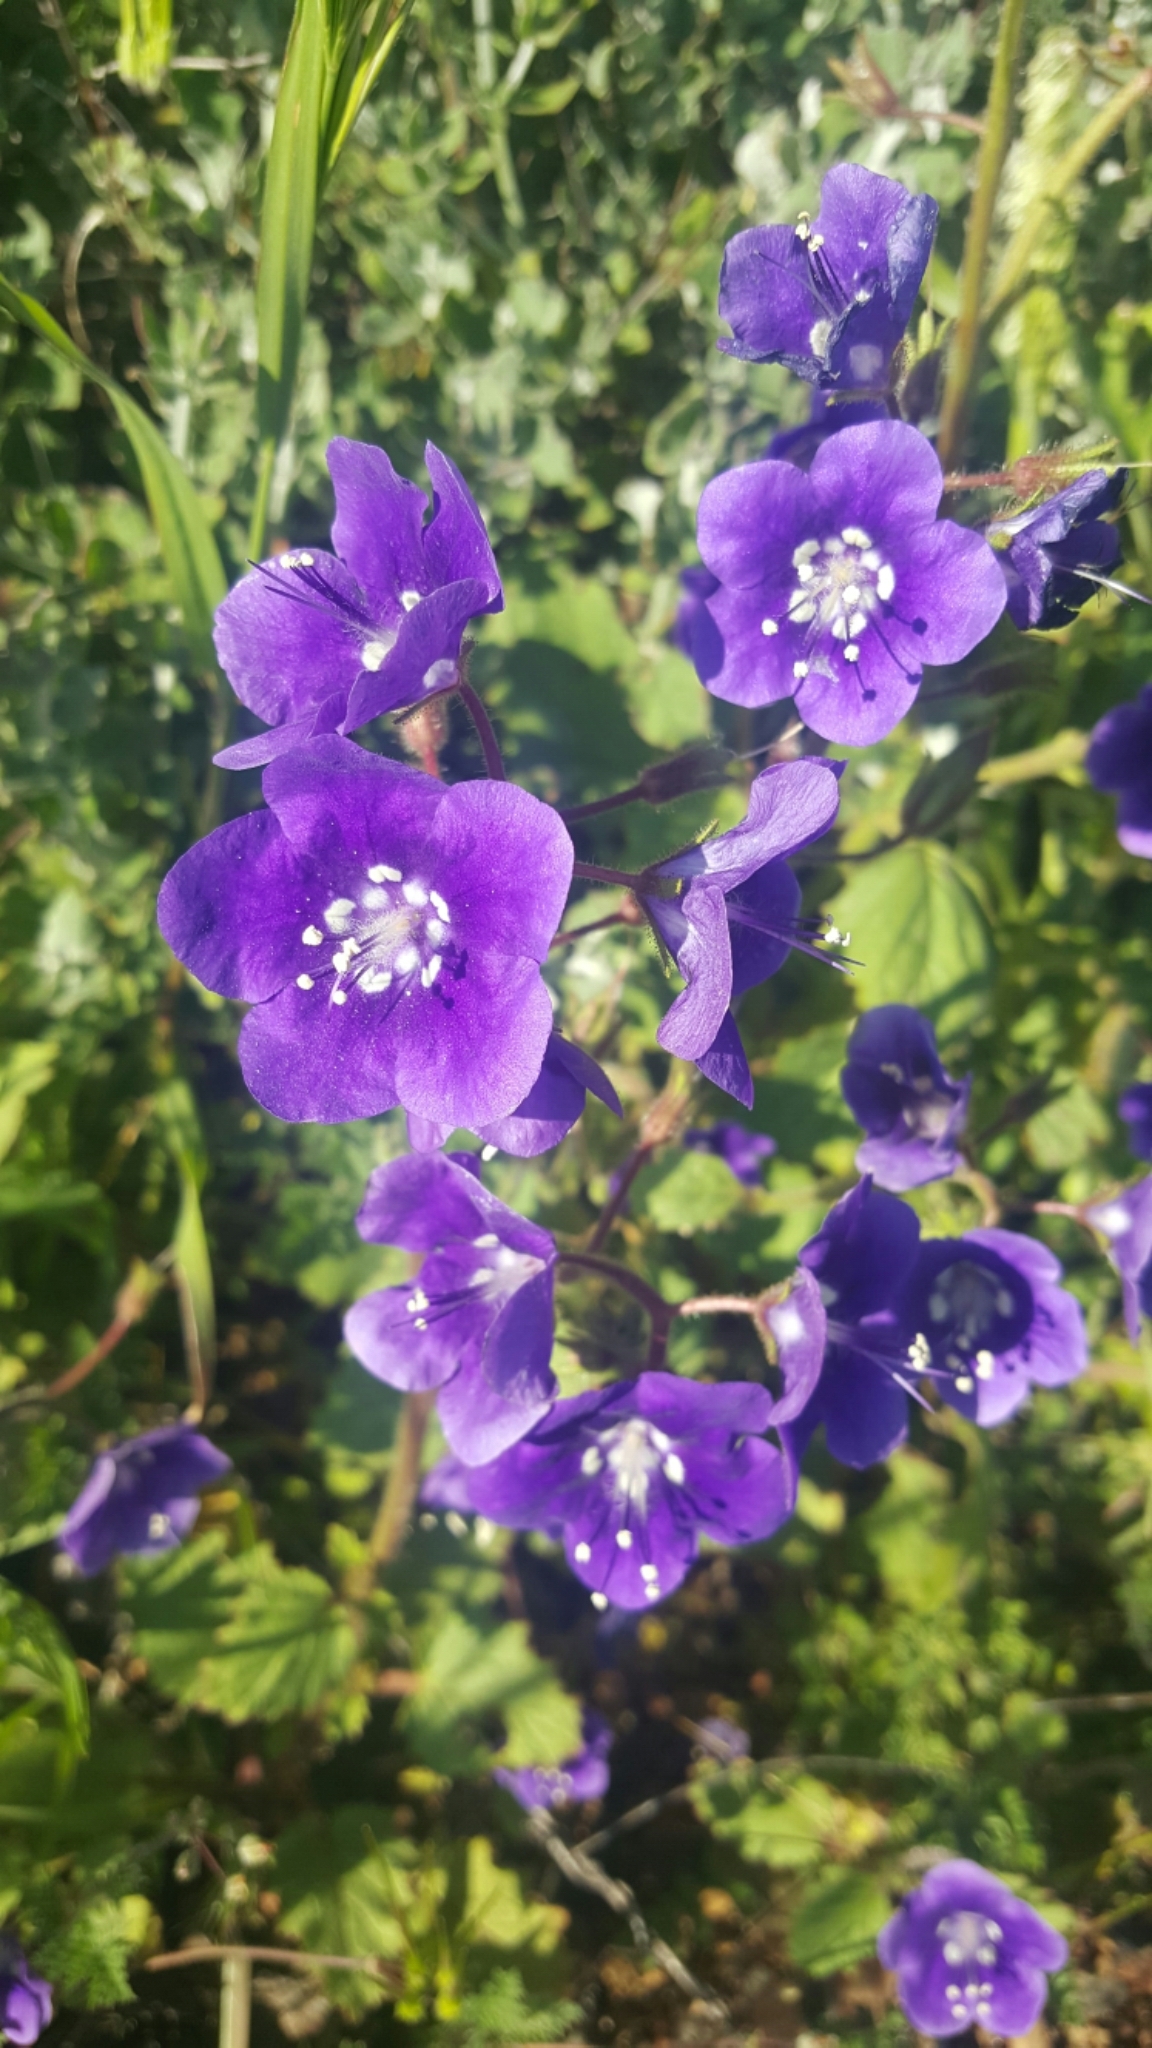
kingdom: Plantae
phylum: Tracheophyta
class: Magnoliopsida
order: Boraginales
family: Hydrophyllaceae
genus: Phacelia
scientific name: Phacelia parryi
